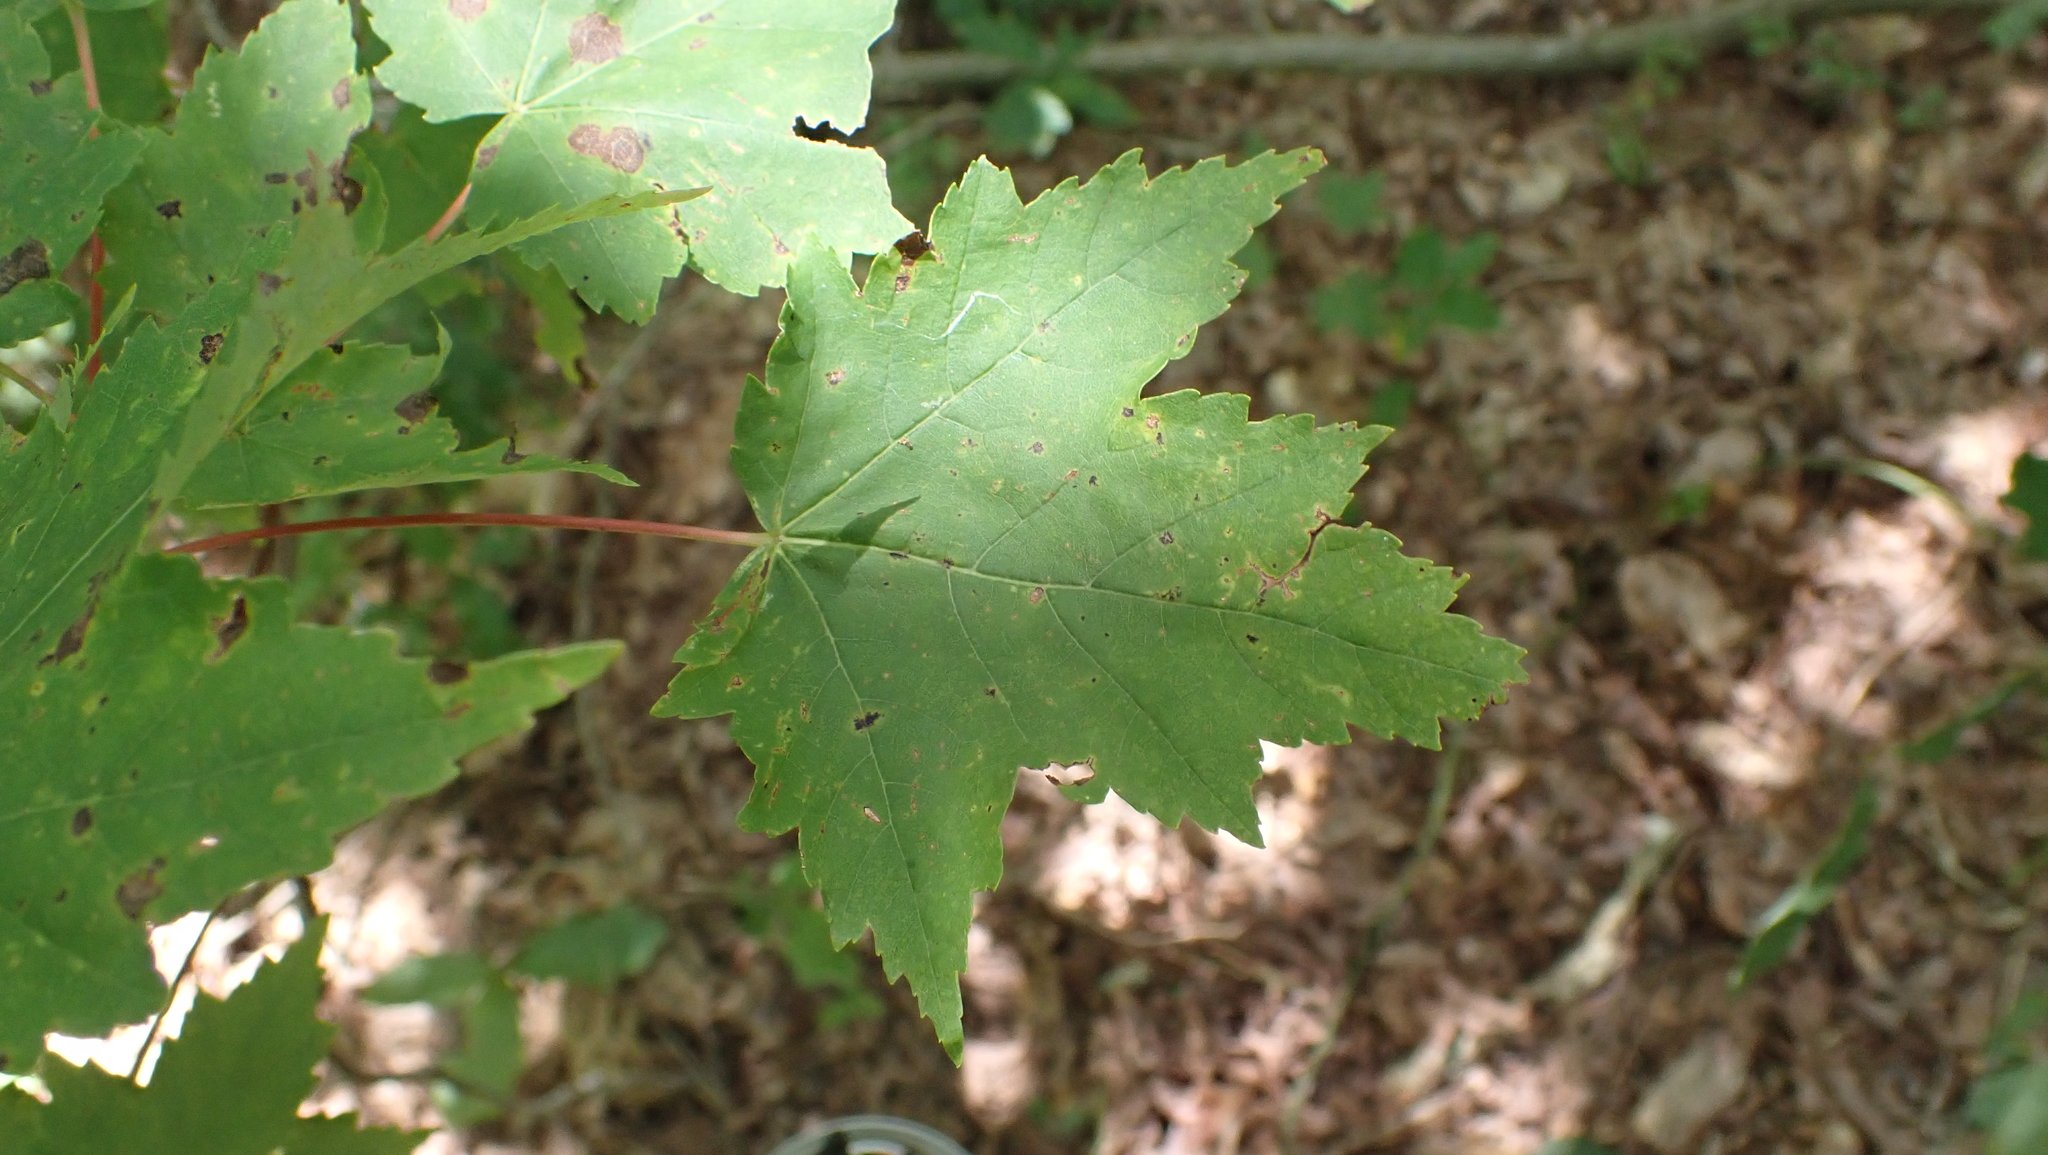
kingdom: Plantae
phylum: Tracheophyta
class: Magnoliopsida
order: Sapindales
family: Sapindaceae
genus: Acer
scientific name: Acer rubrum
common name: Red maple
